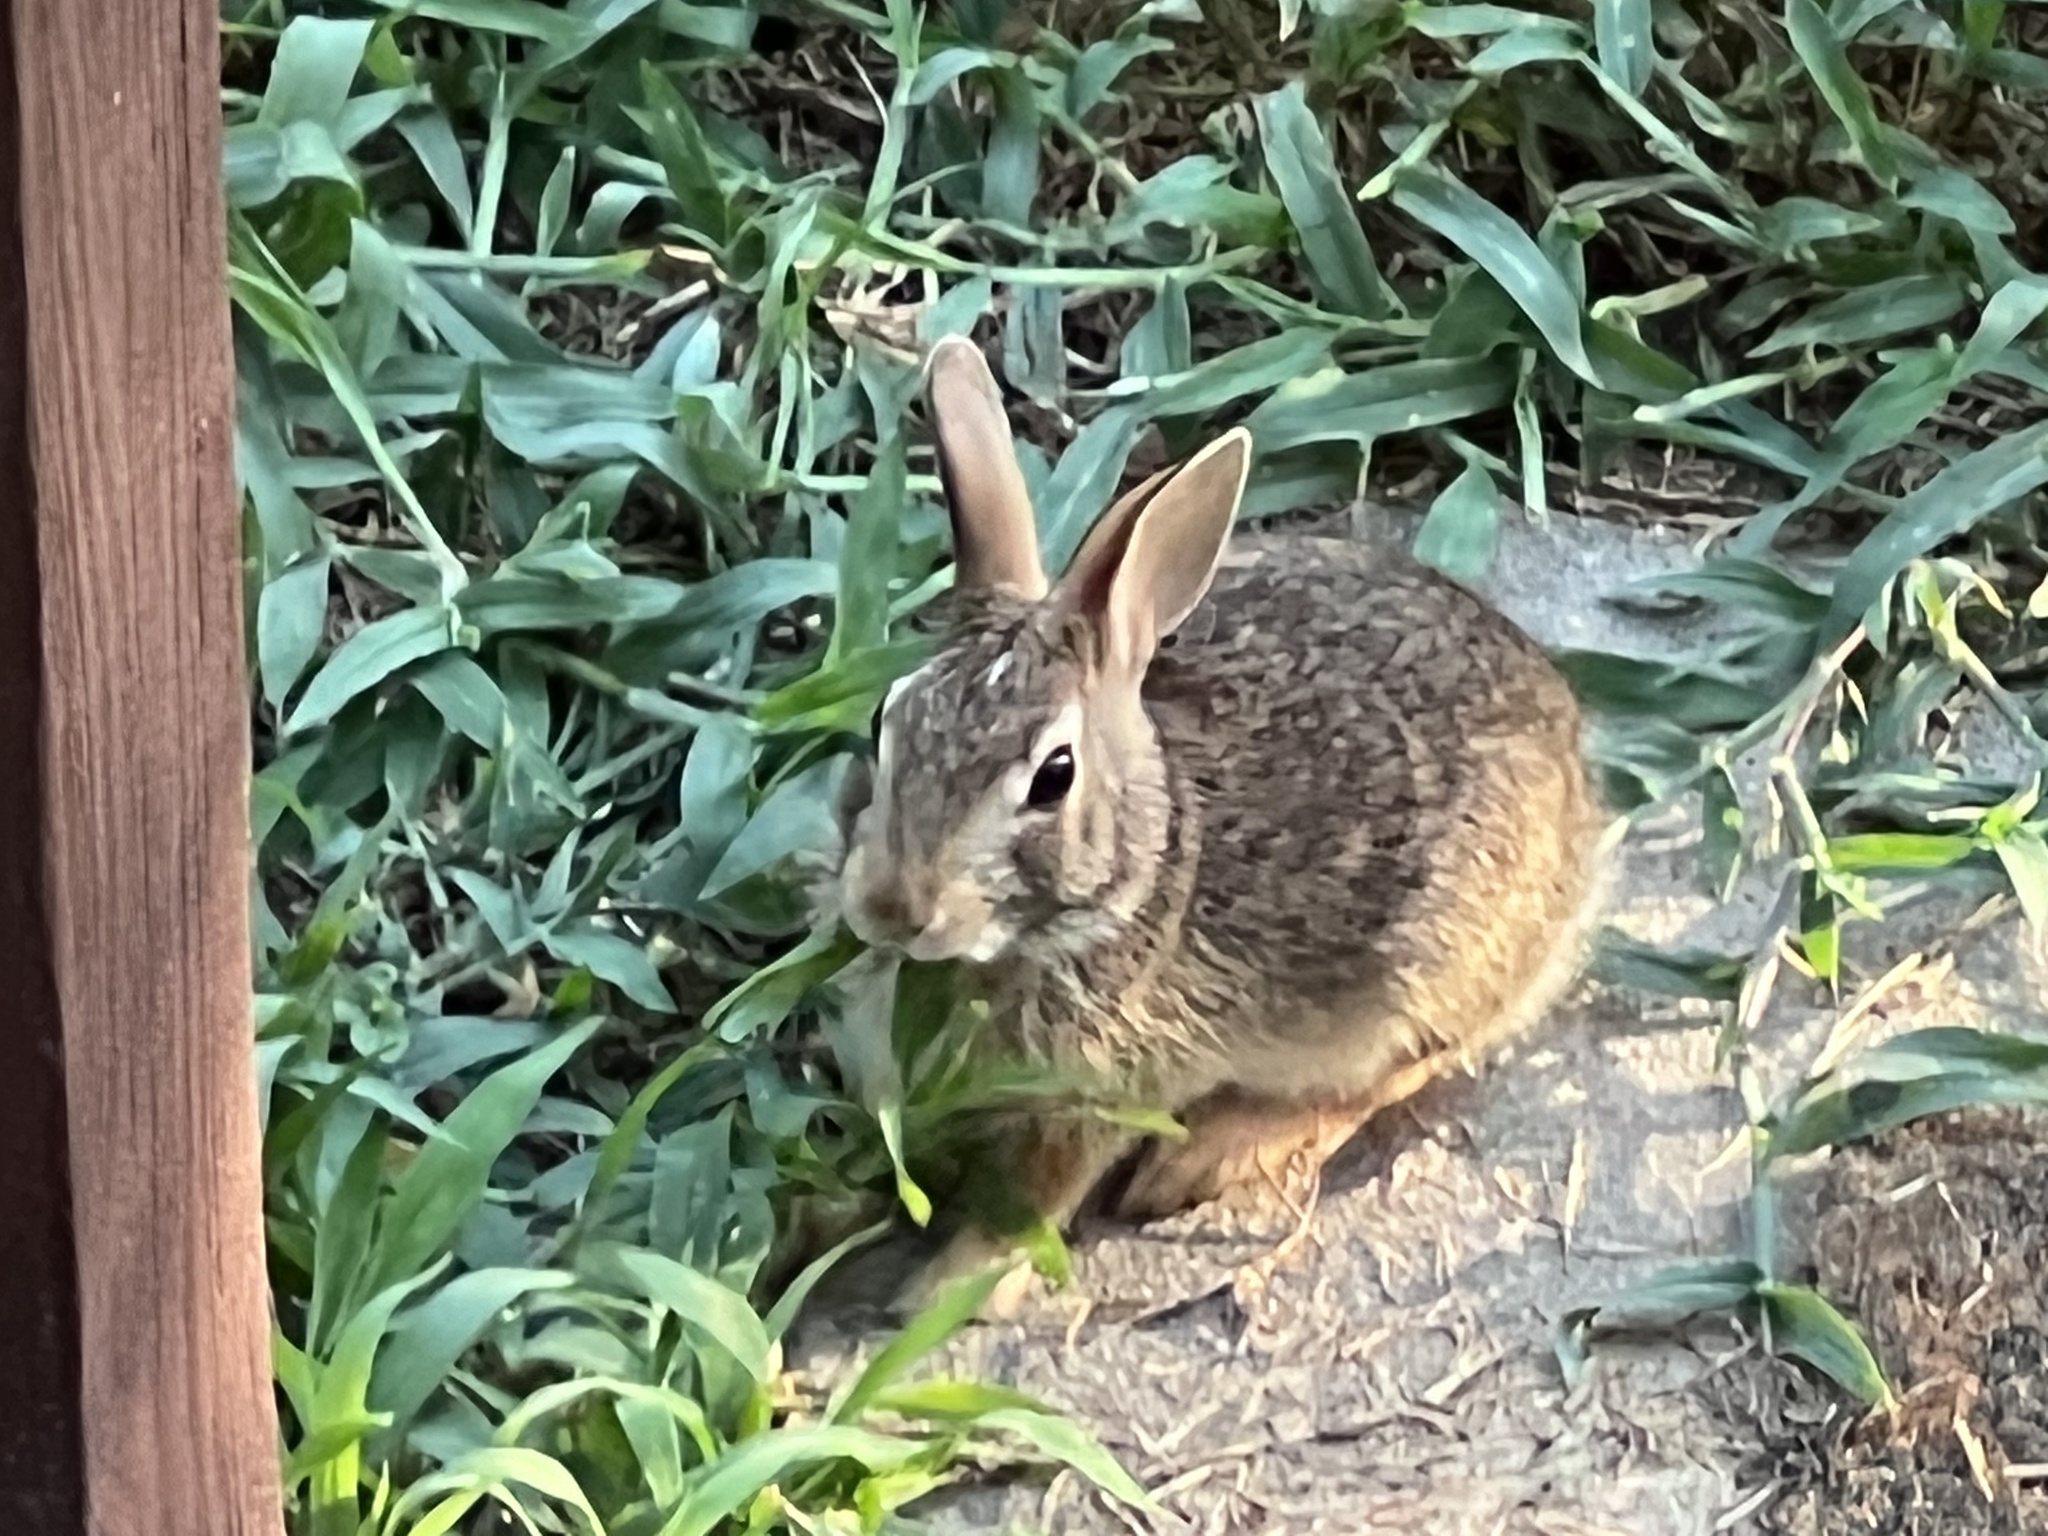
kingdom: Animalia
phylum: Chordata
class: Mammalia
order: Lagomorpha
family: Leporidae
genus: Sylvilagus
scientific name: Sylvilagus floridanus
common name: Eastern cottontail
